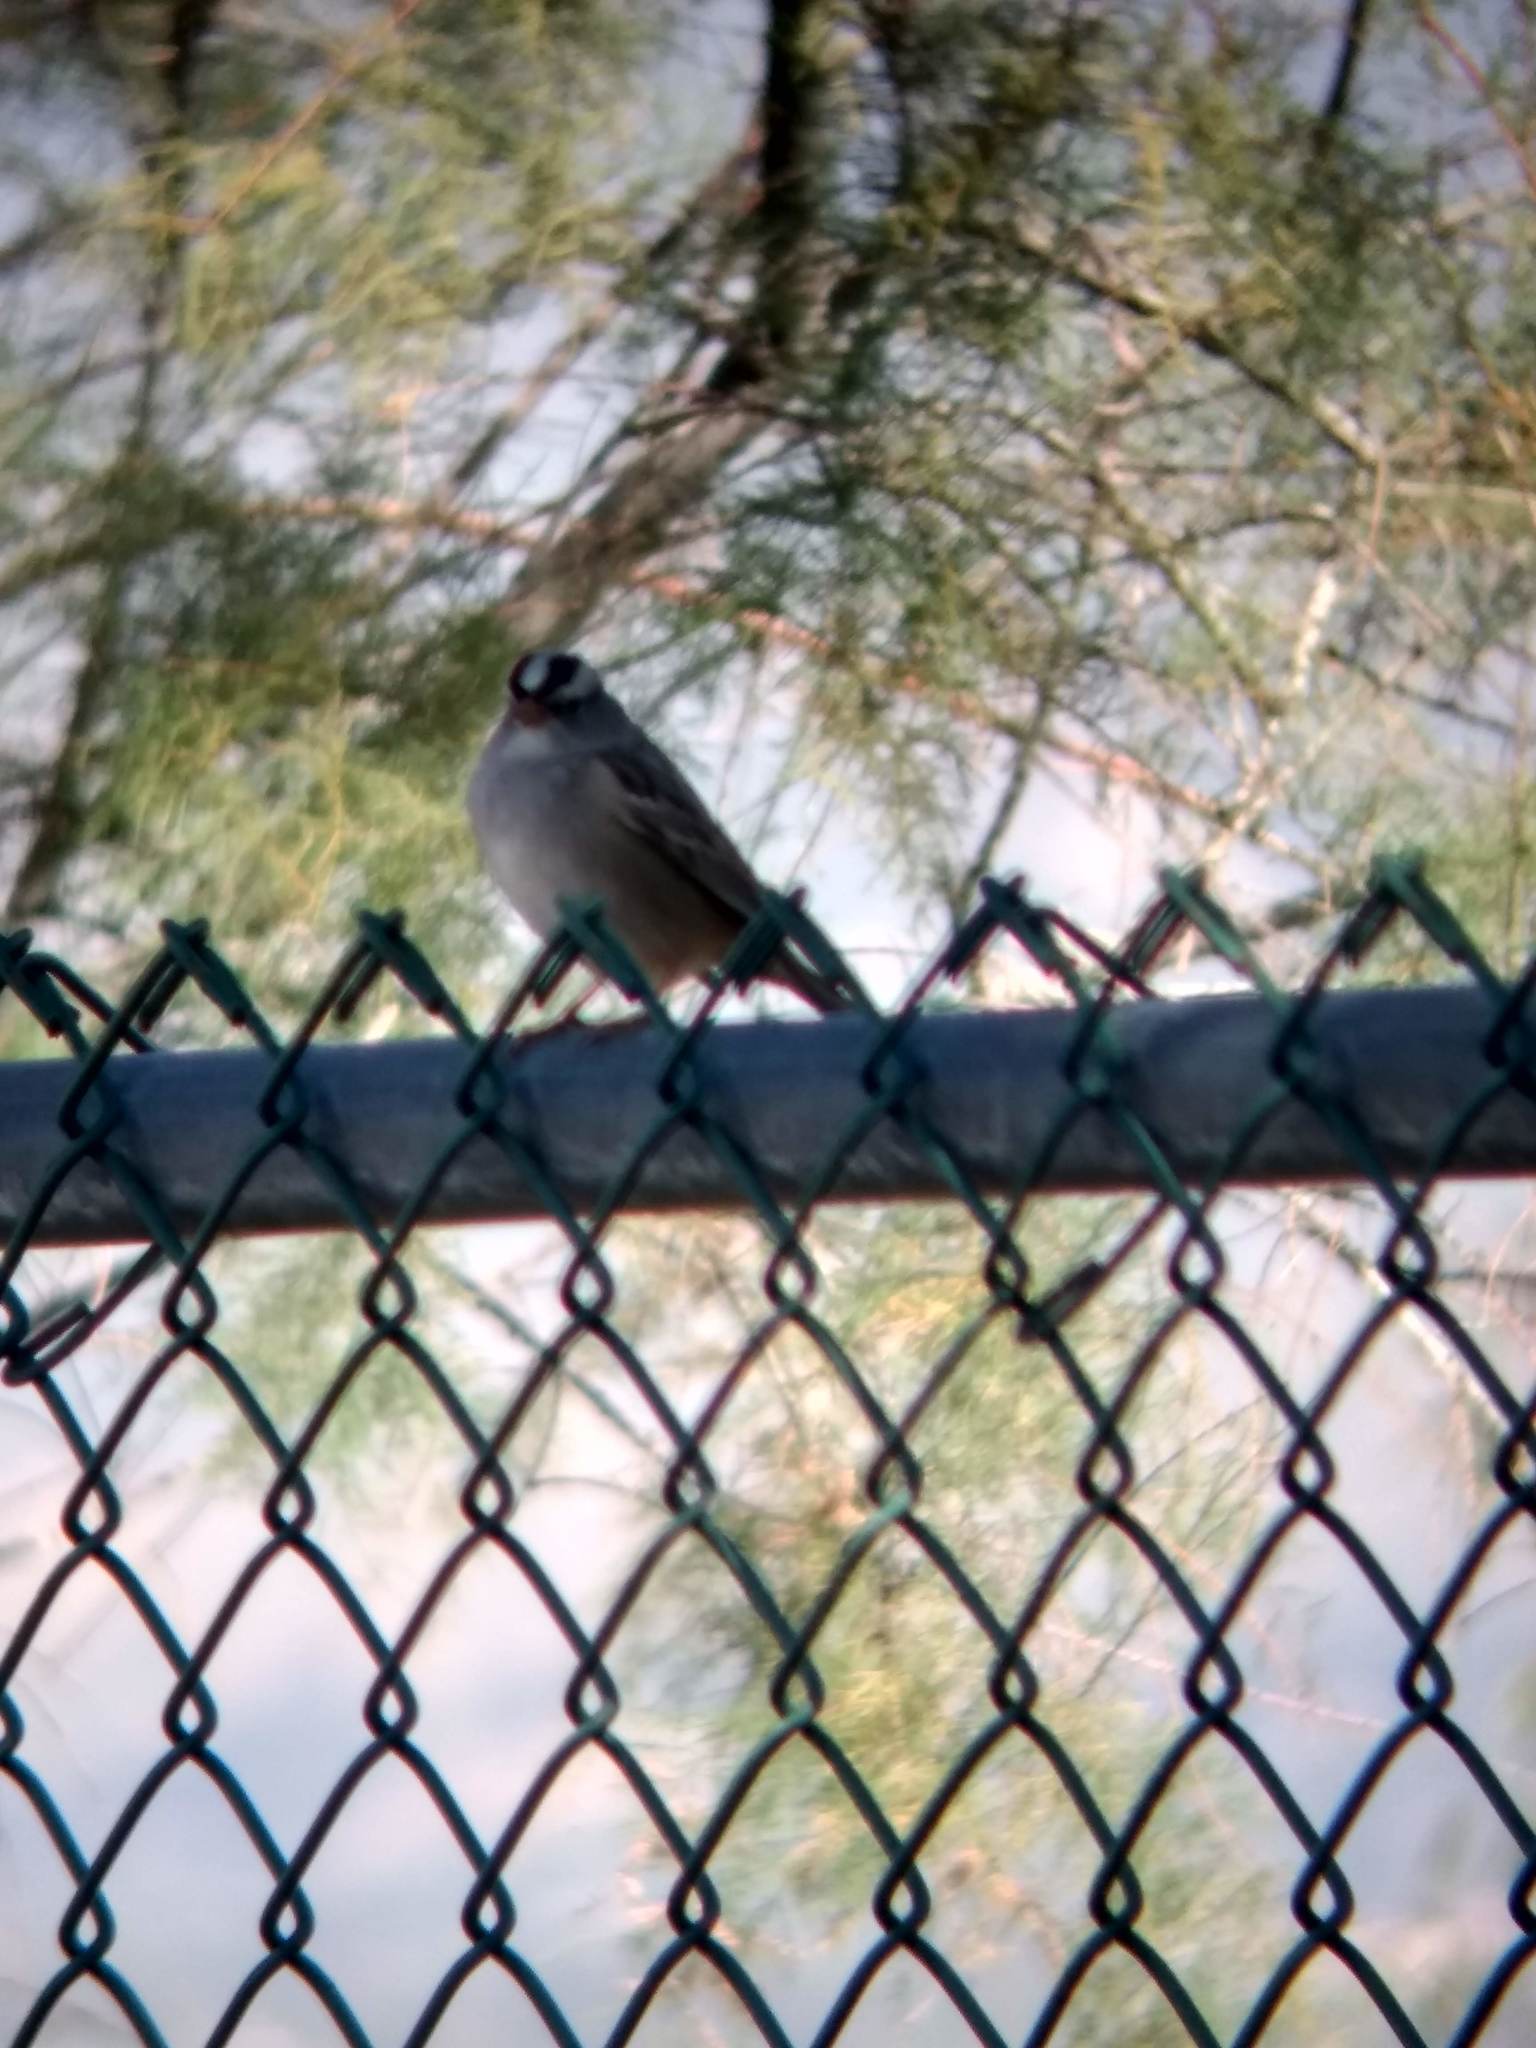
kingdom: Animalia
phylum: Chordata
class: Aves
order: Passeriformes
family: Passerellidae
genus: Zonotrichia
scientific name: Zonotrichia leucophrys
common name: White-crowned sparrow
